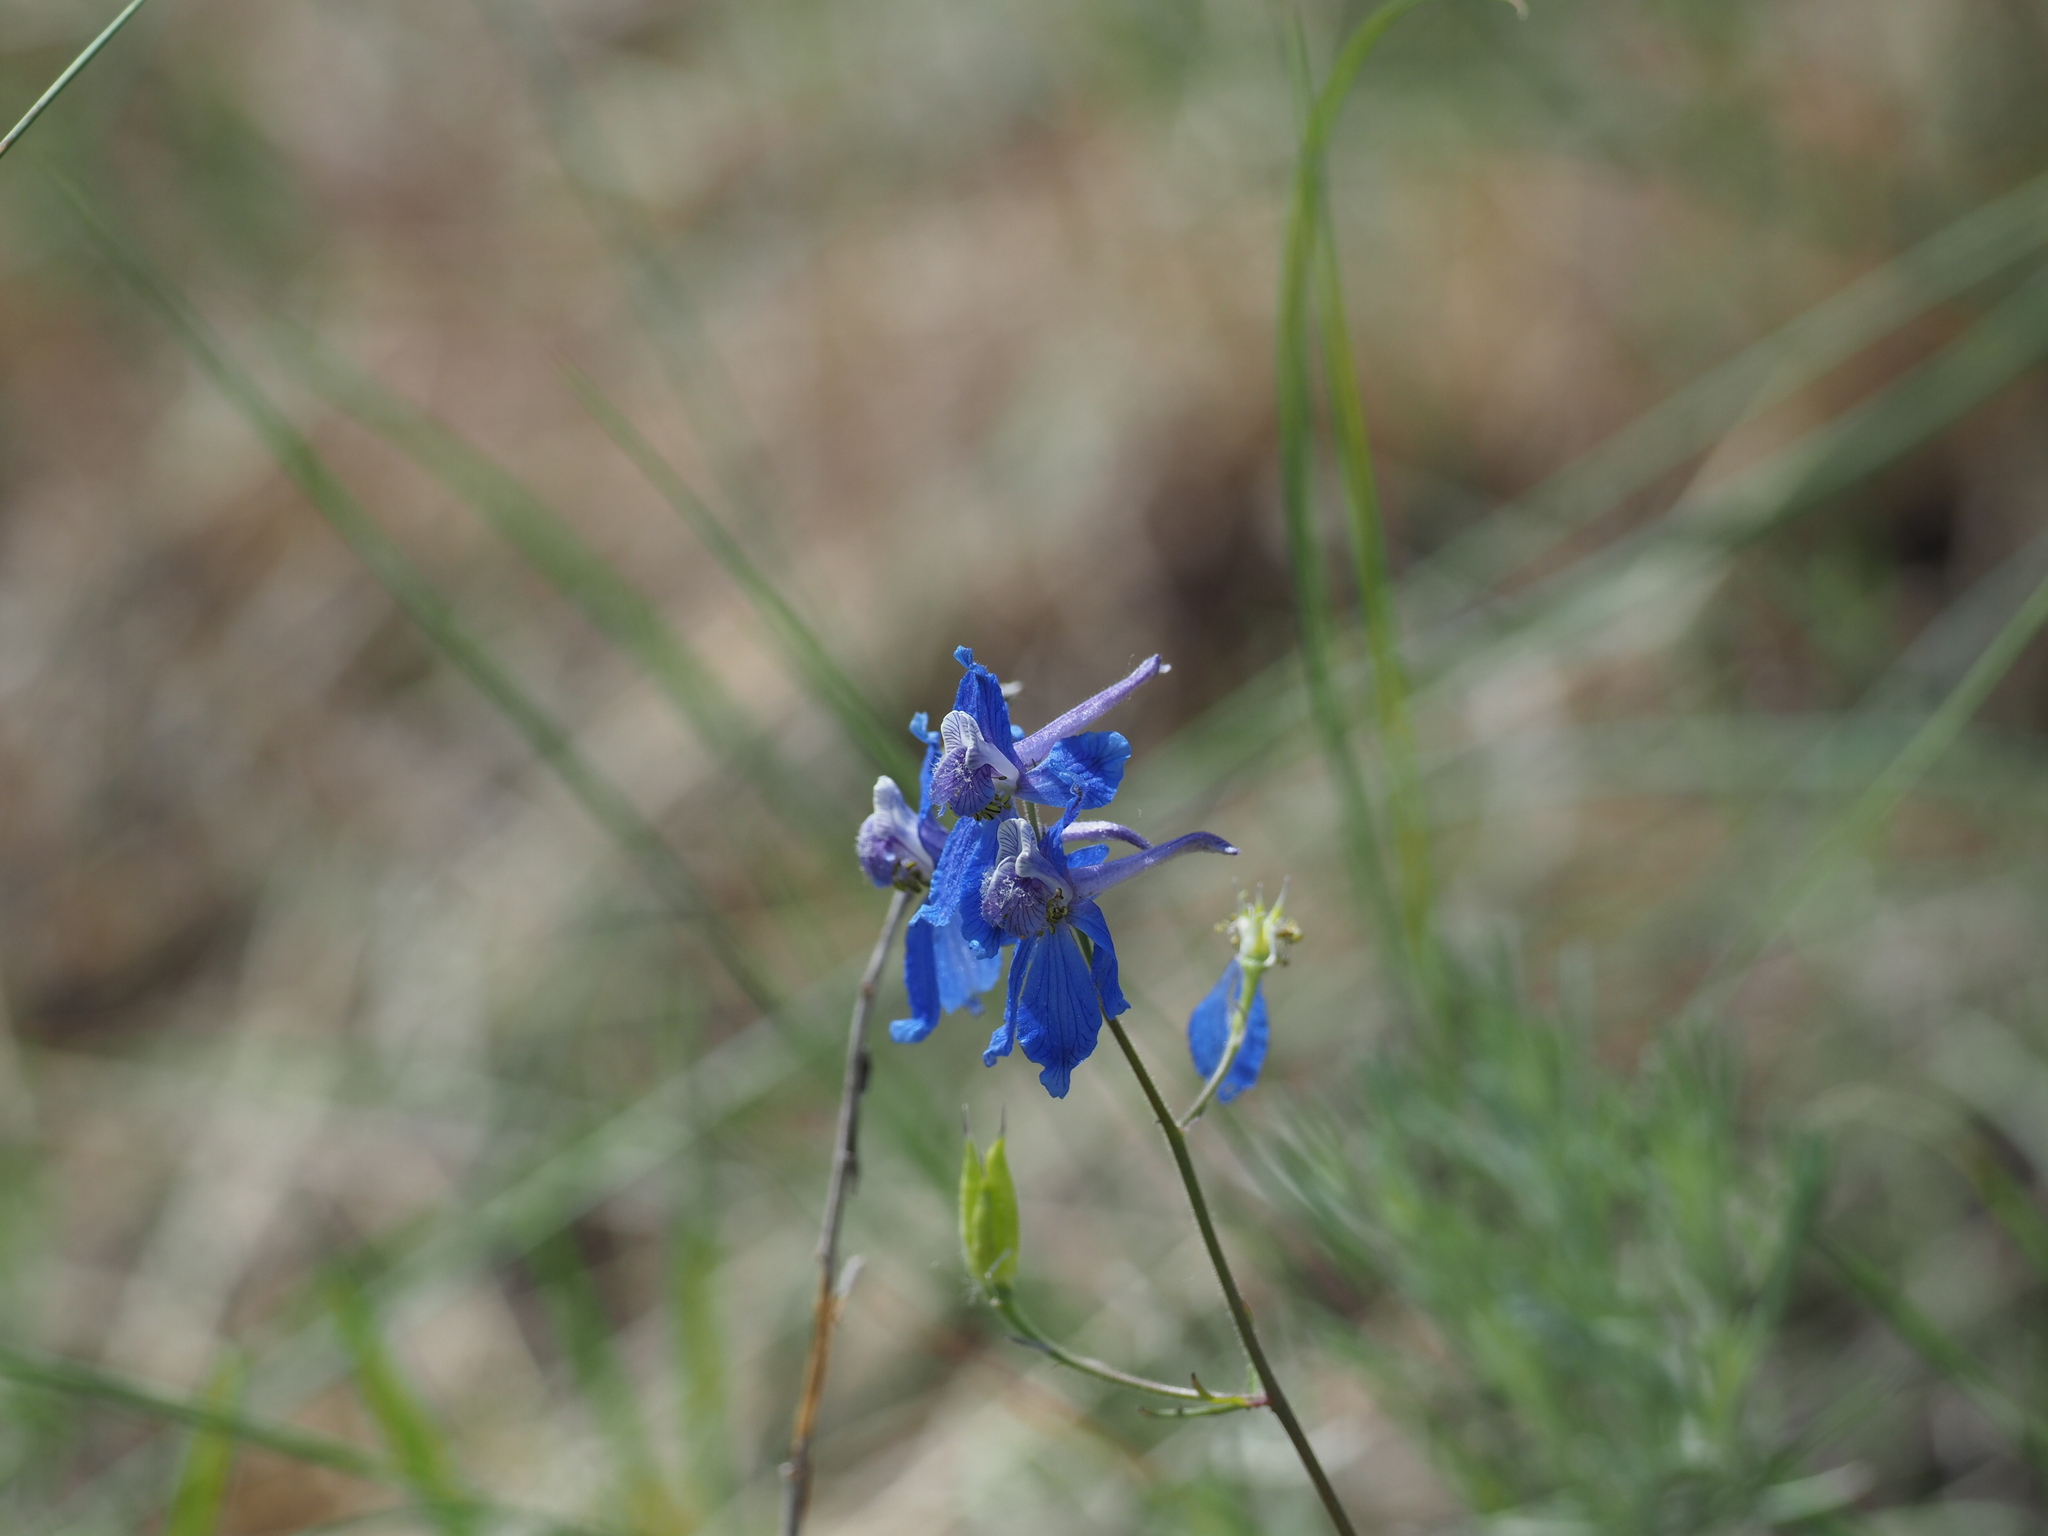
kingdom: Plantae
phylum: Tracheophyta
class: Magnoliopsida
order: Ranunculales
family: Ranunculaceae
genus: Delphinium
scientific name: Delphinium nuttallianum
